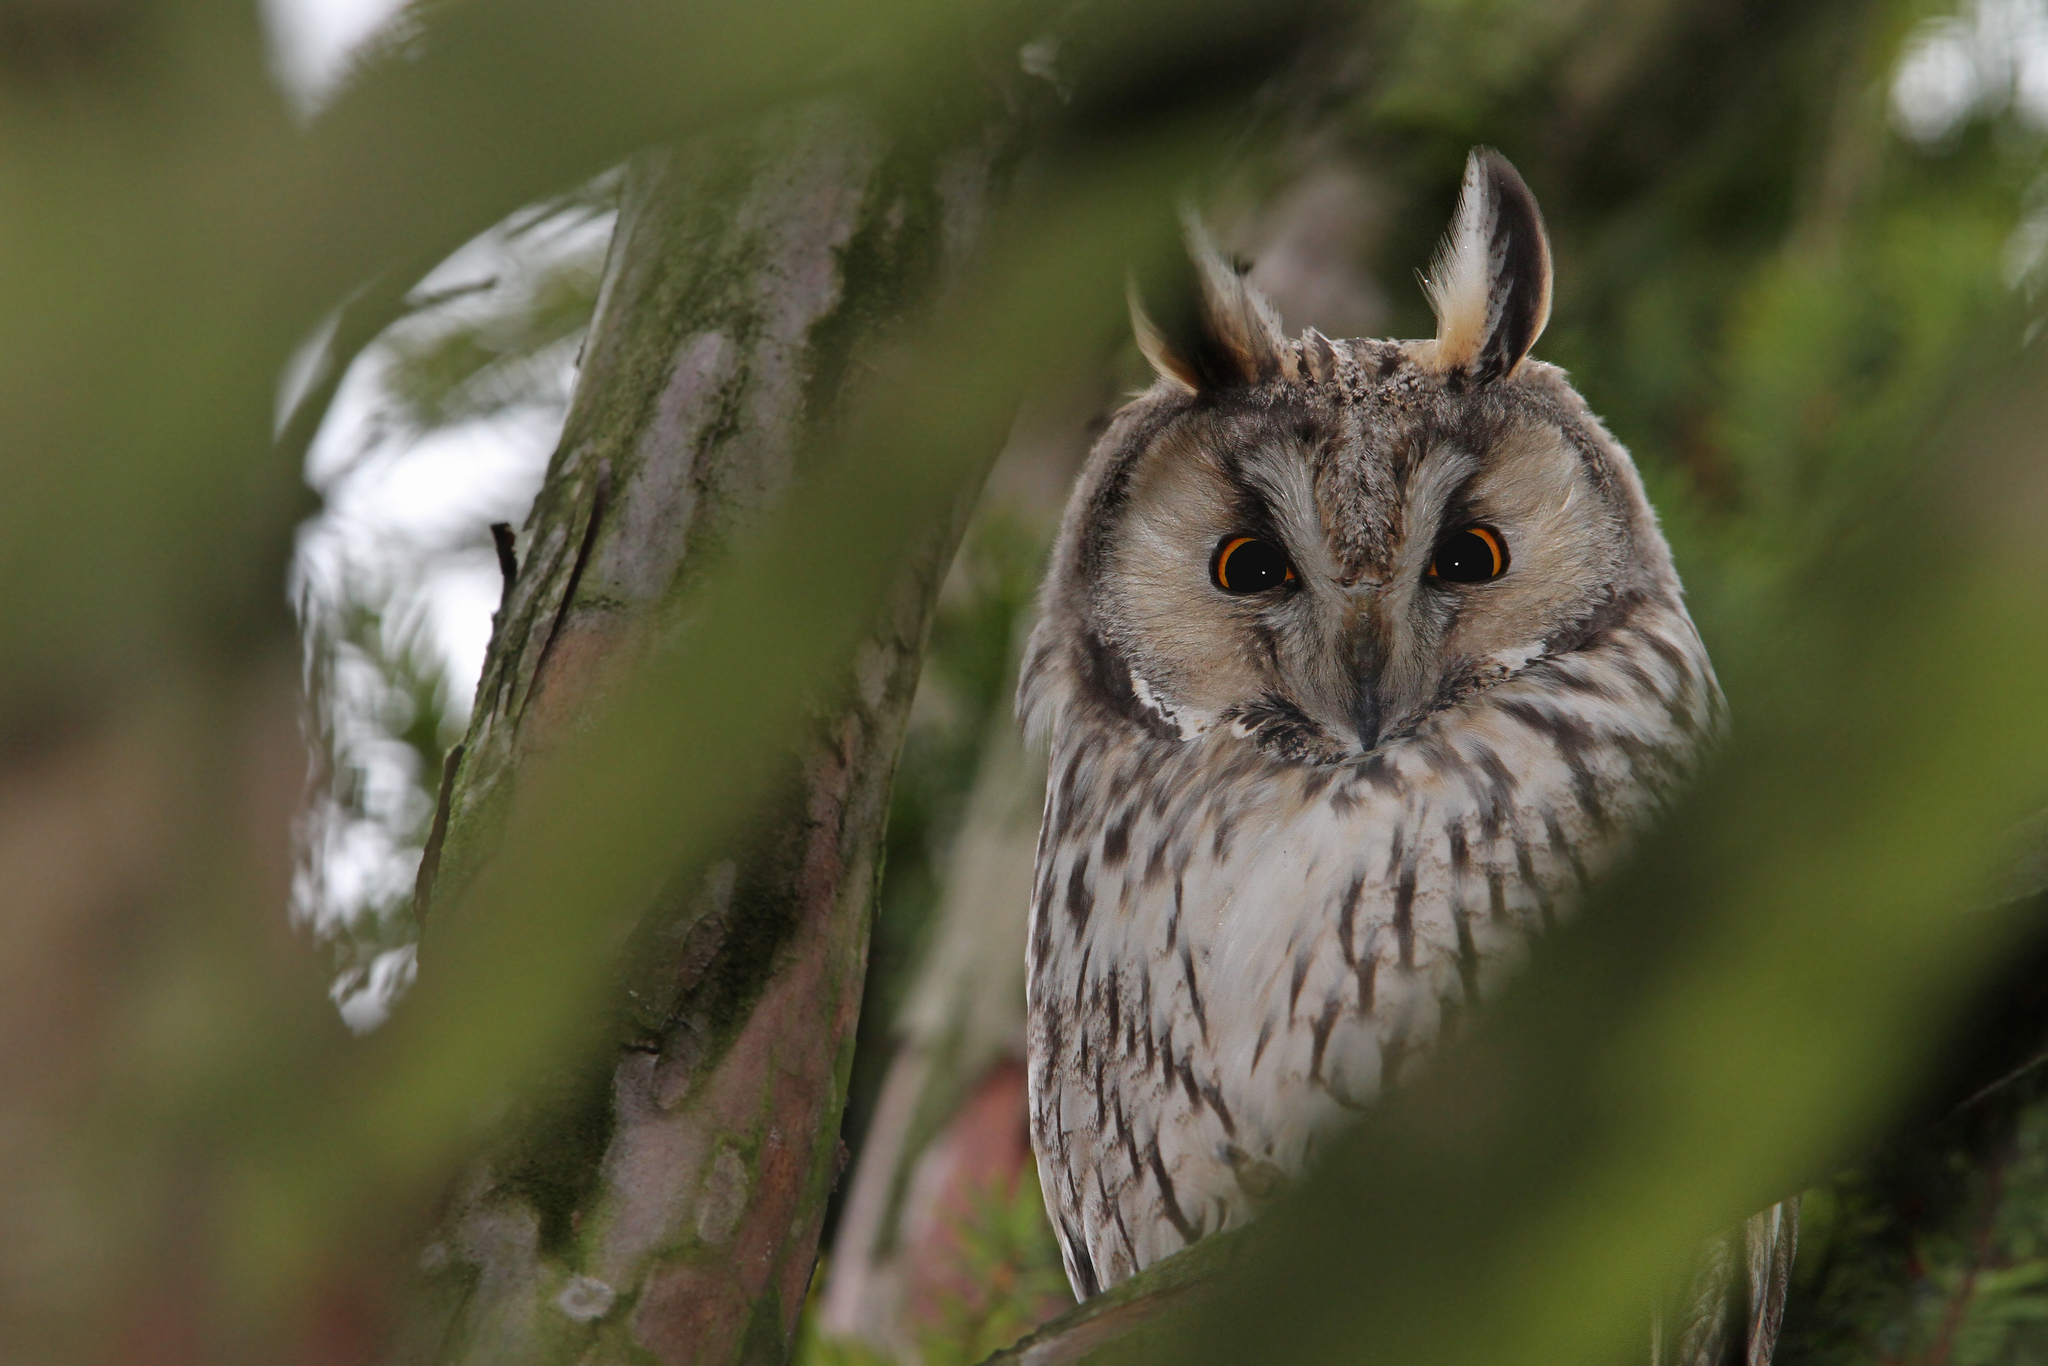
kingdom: Animalia
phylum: Chordata
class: Aves
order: Strigiformes
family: Strigidae
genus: Asio
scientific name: Asio otus
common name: Long-eared owl
